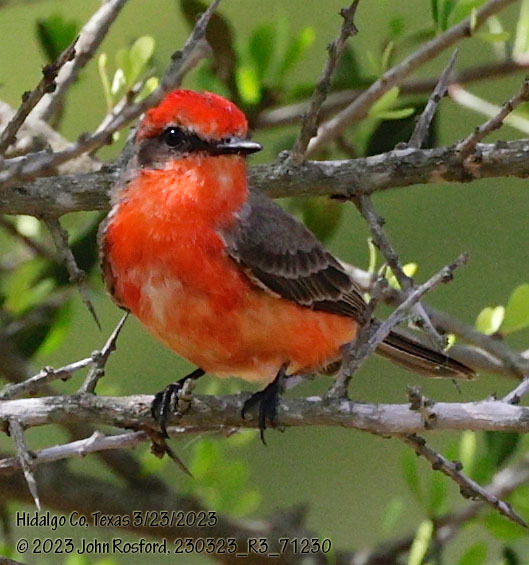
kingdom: Animalia
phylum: Chordata
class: Aves
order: Passeriformes
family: Tyrannidae
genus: Pyrocephalus
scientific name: Pyrocephalus rubinus
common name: Vermilion flycatcher
